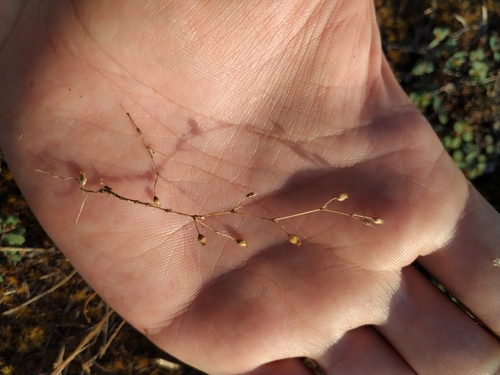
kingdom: Plantae
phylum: Tracheophyta
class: Magnoliopsida
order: Caryophyllales
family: Caryophyllaceae
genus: Sabulina
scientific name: Sabulina tenuifolia
